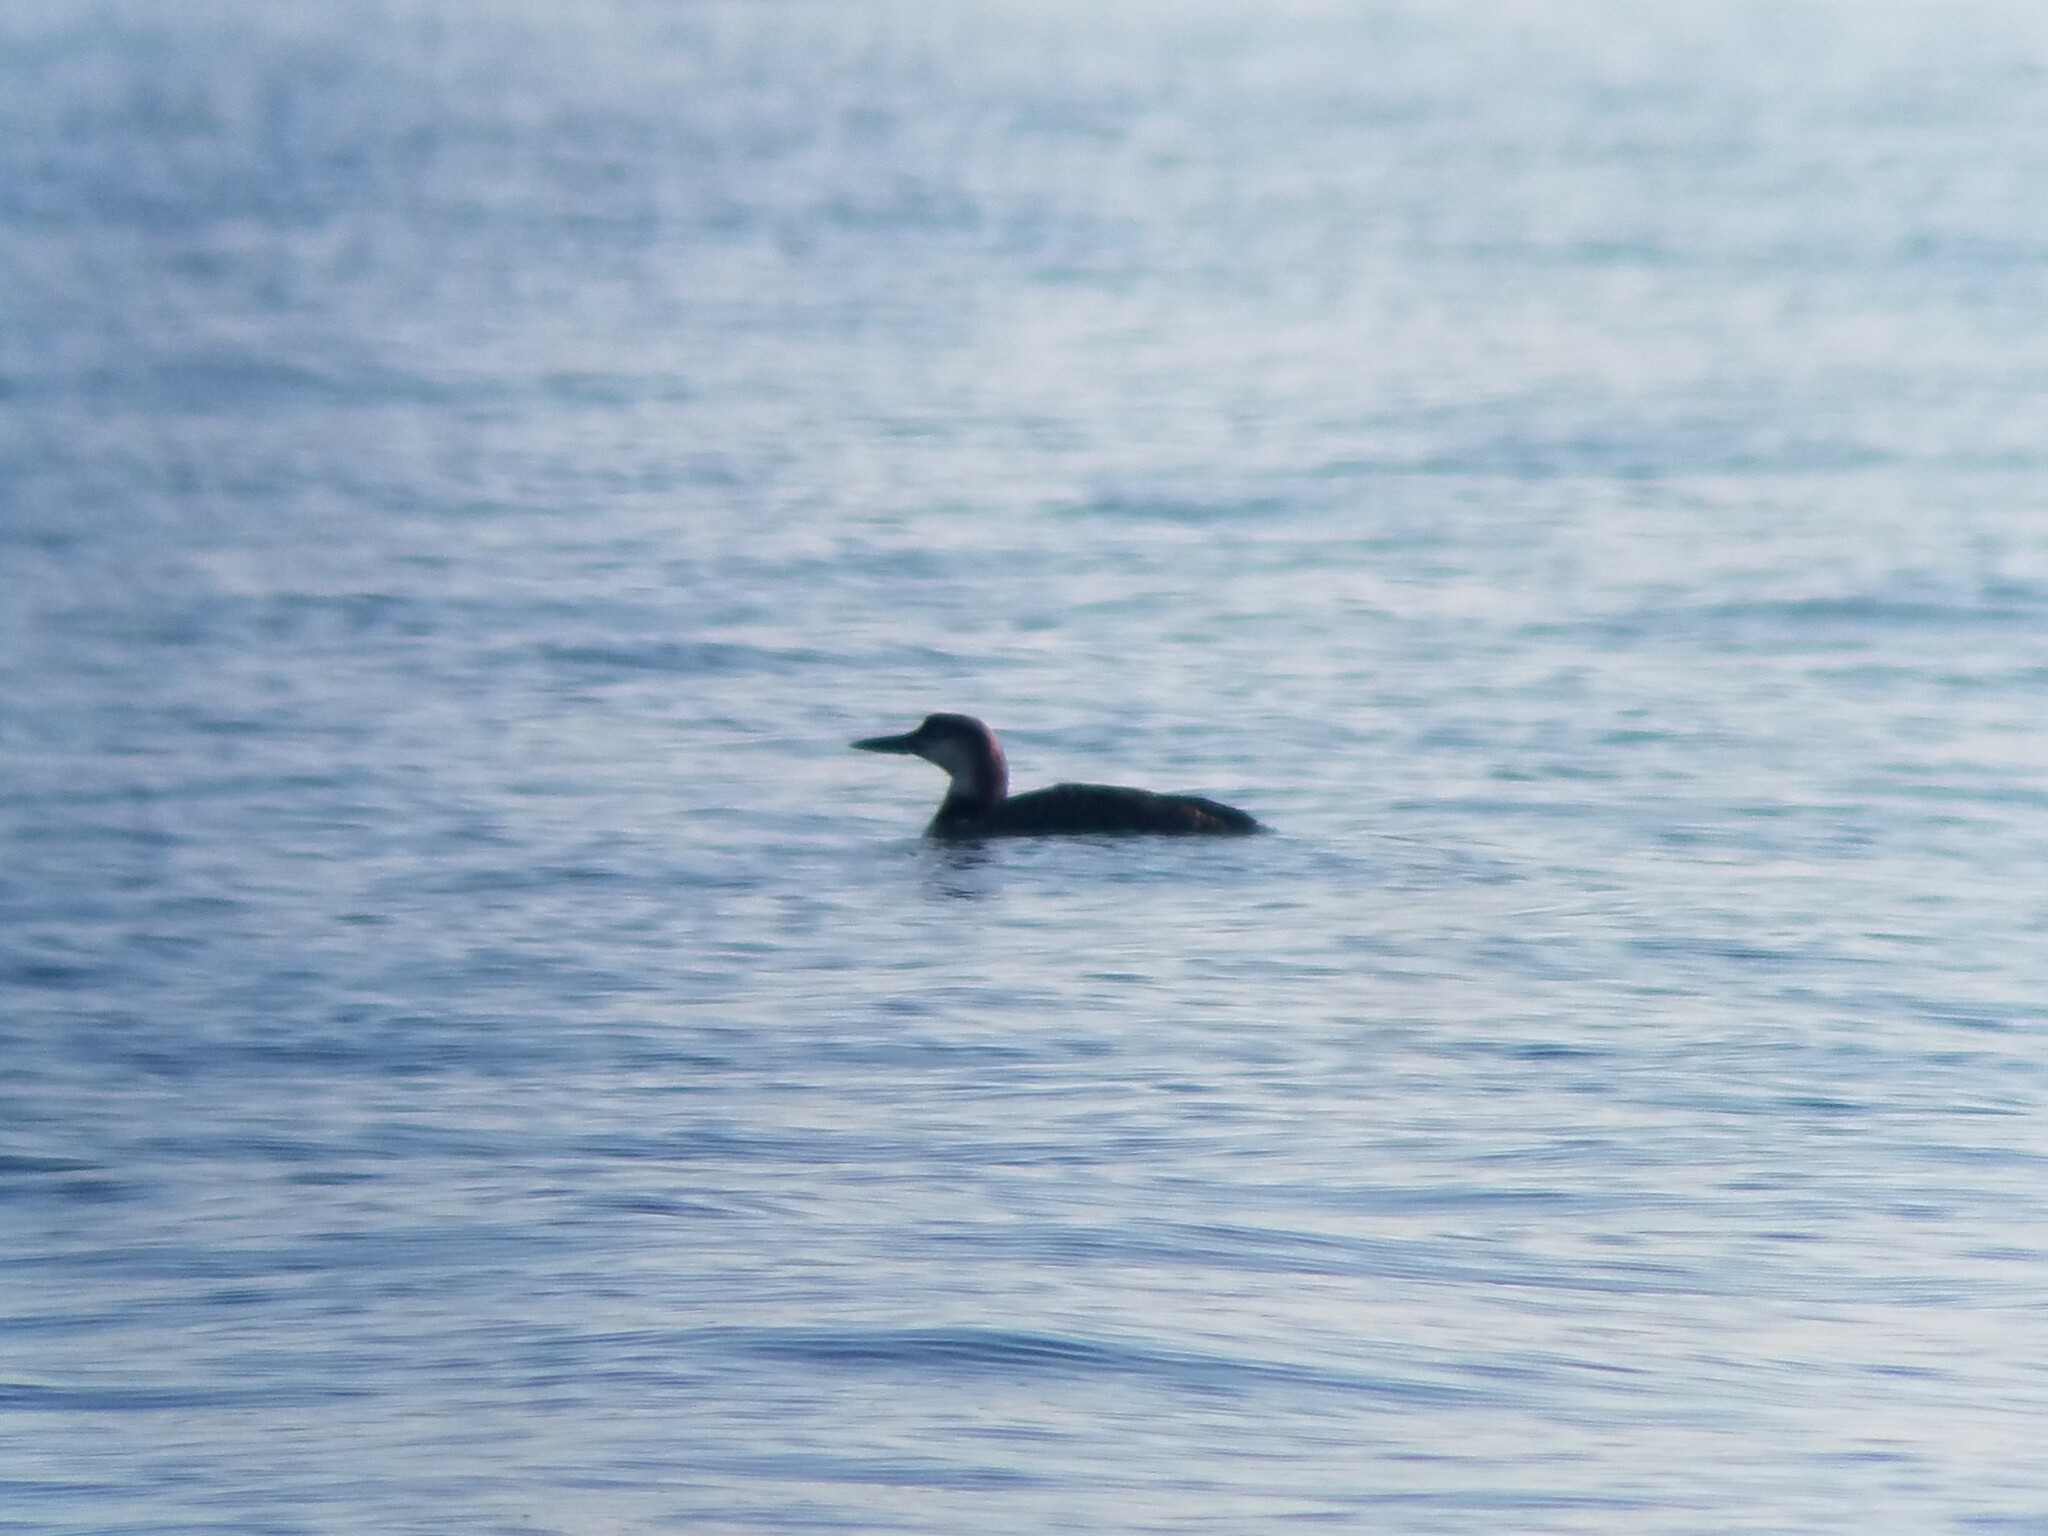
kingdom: Animalia
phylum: Chordata
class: Aves
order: Gaviiformes
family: Gaviidae
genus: Gavia
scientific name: Gavia immer
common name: Common loon
